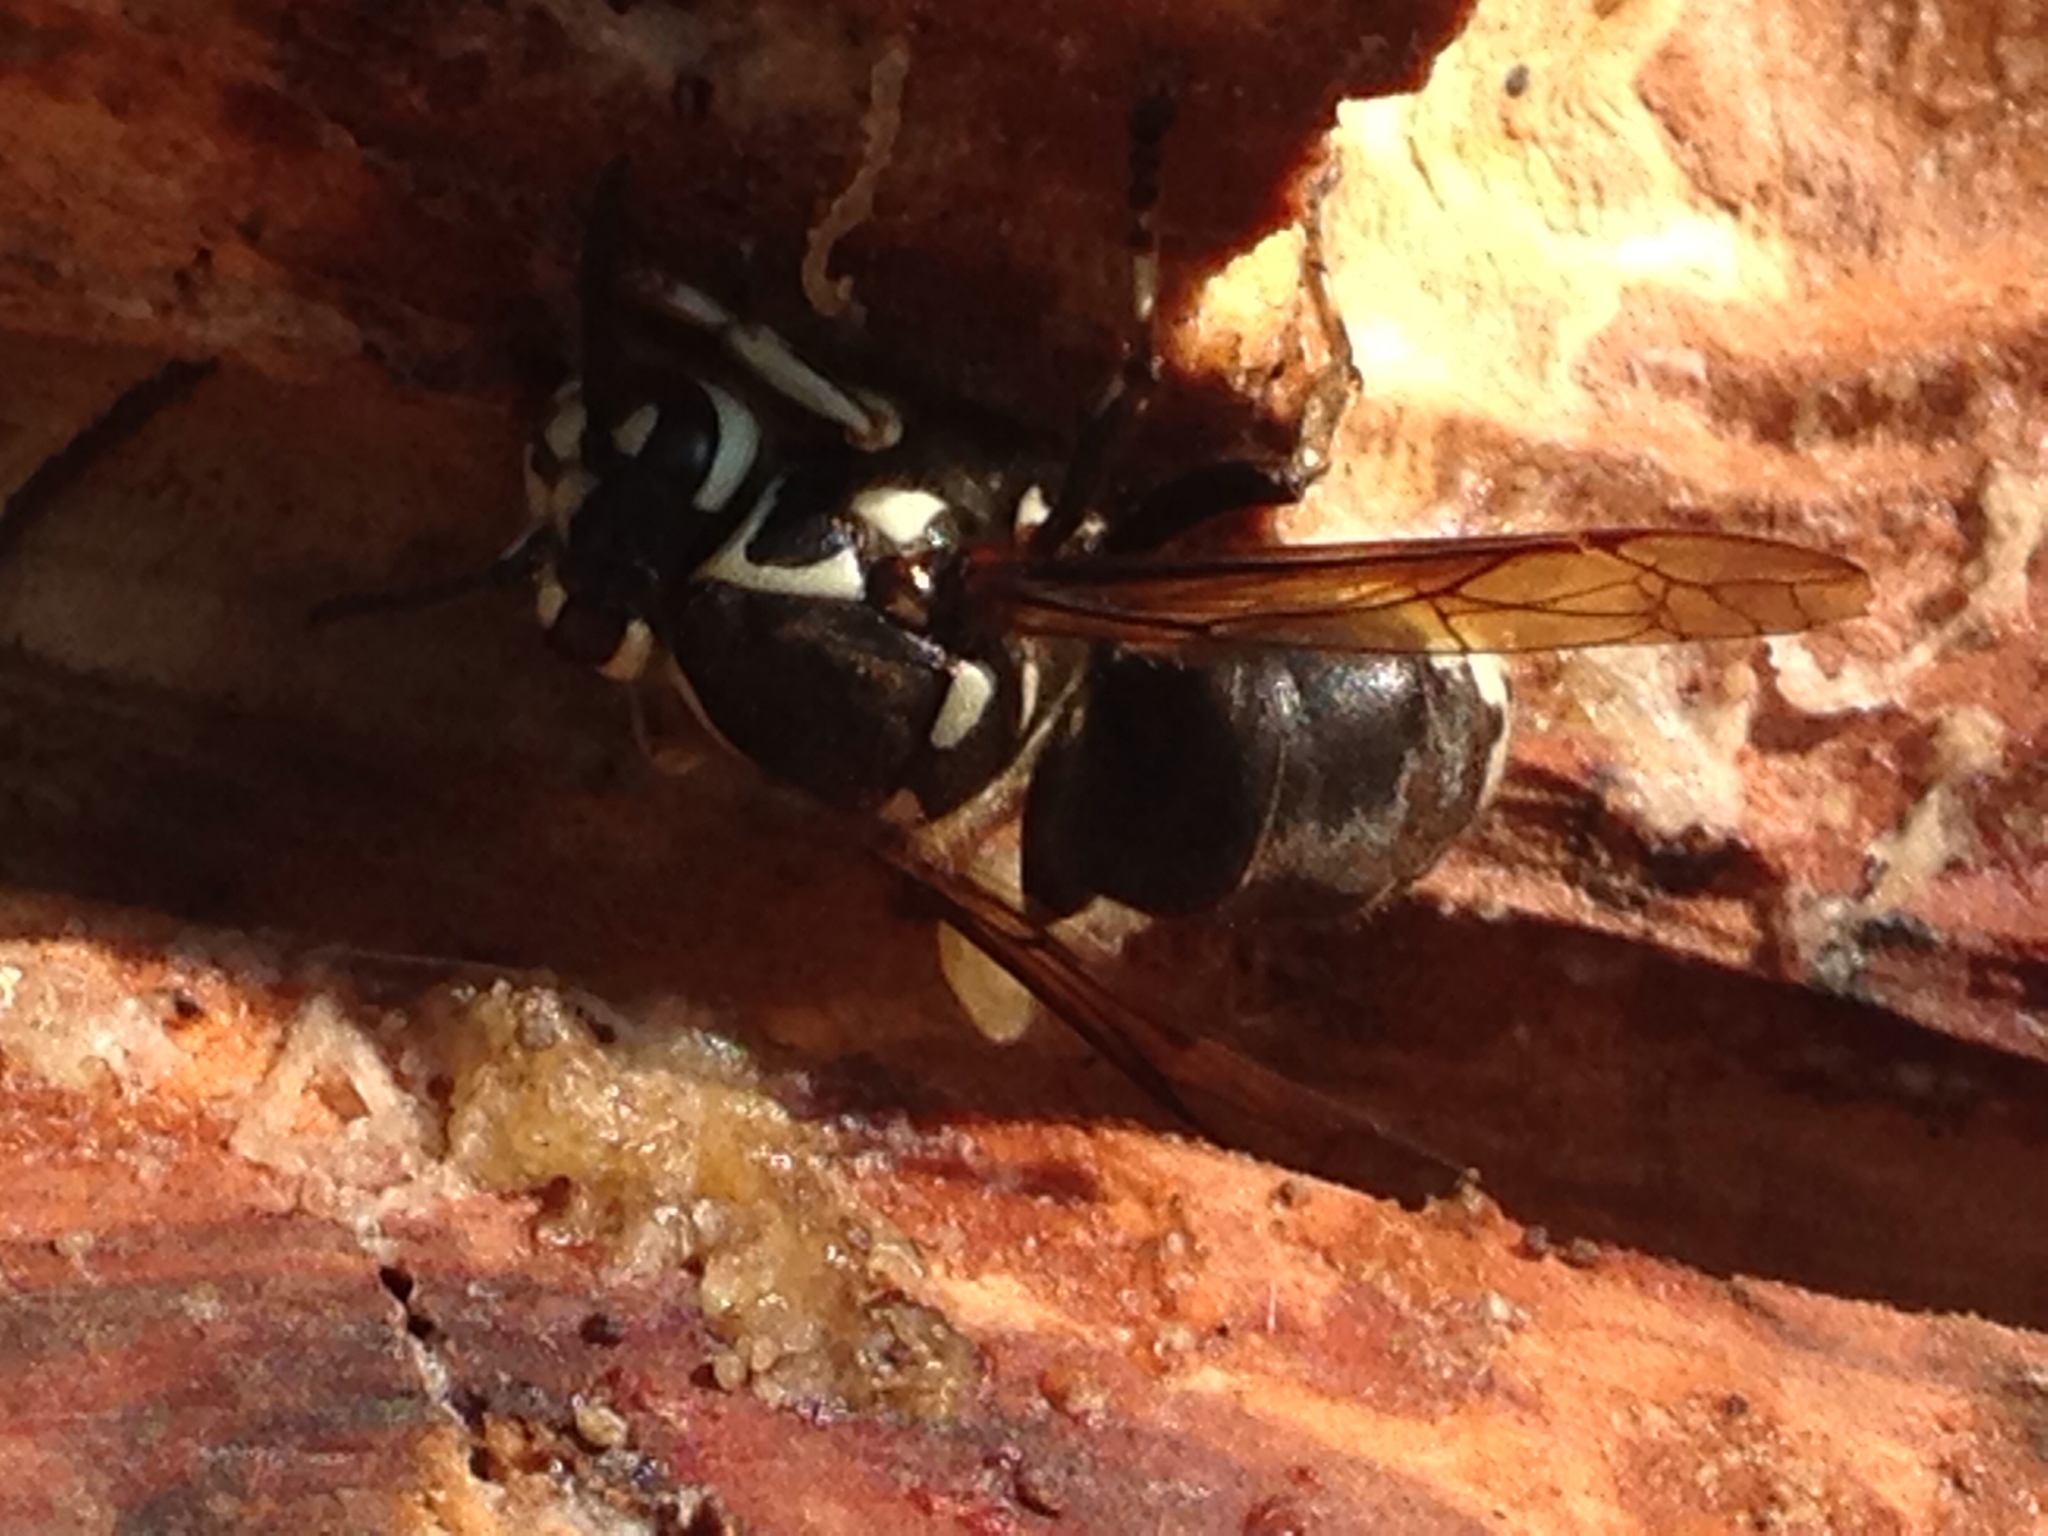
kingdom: Animalia
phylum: Arthropoda
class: Insecta
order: Hymenoptera
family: Vespidae
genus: Dolichovespula
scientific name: Dolichovespula maculata
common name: Bald-faced hornet
